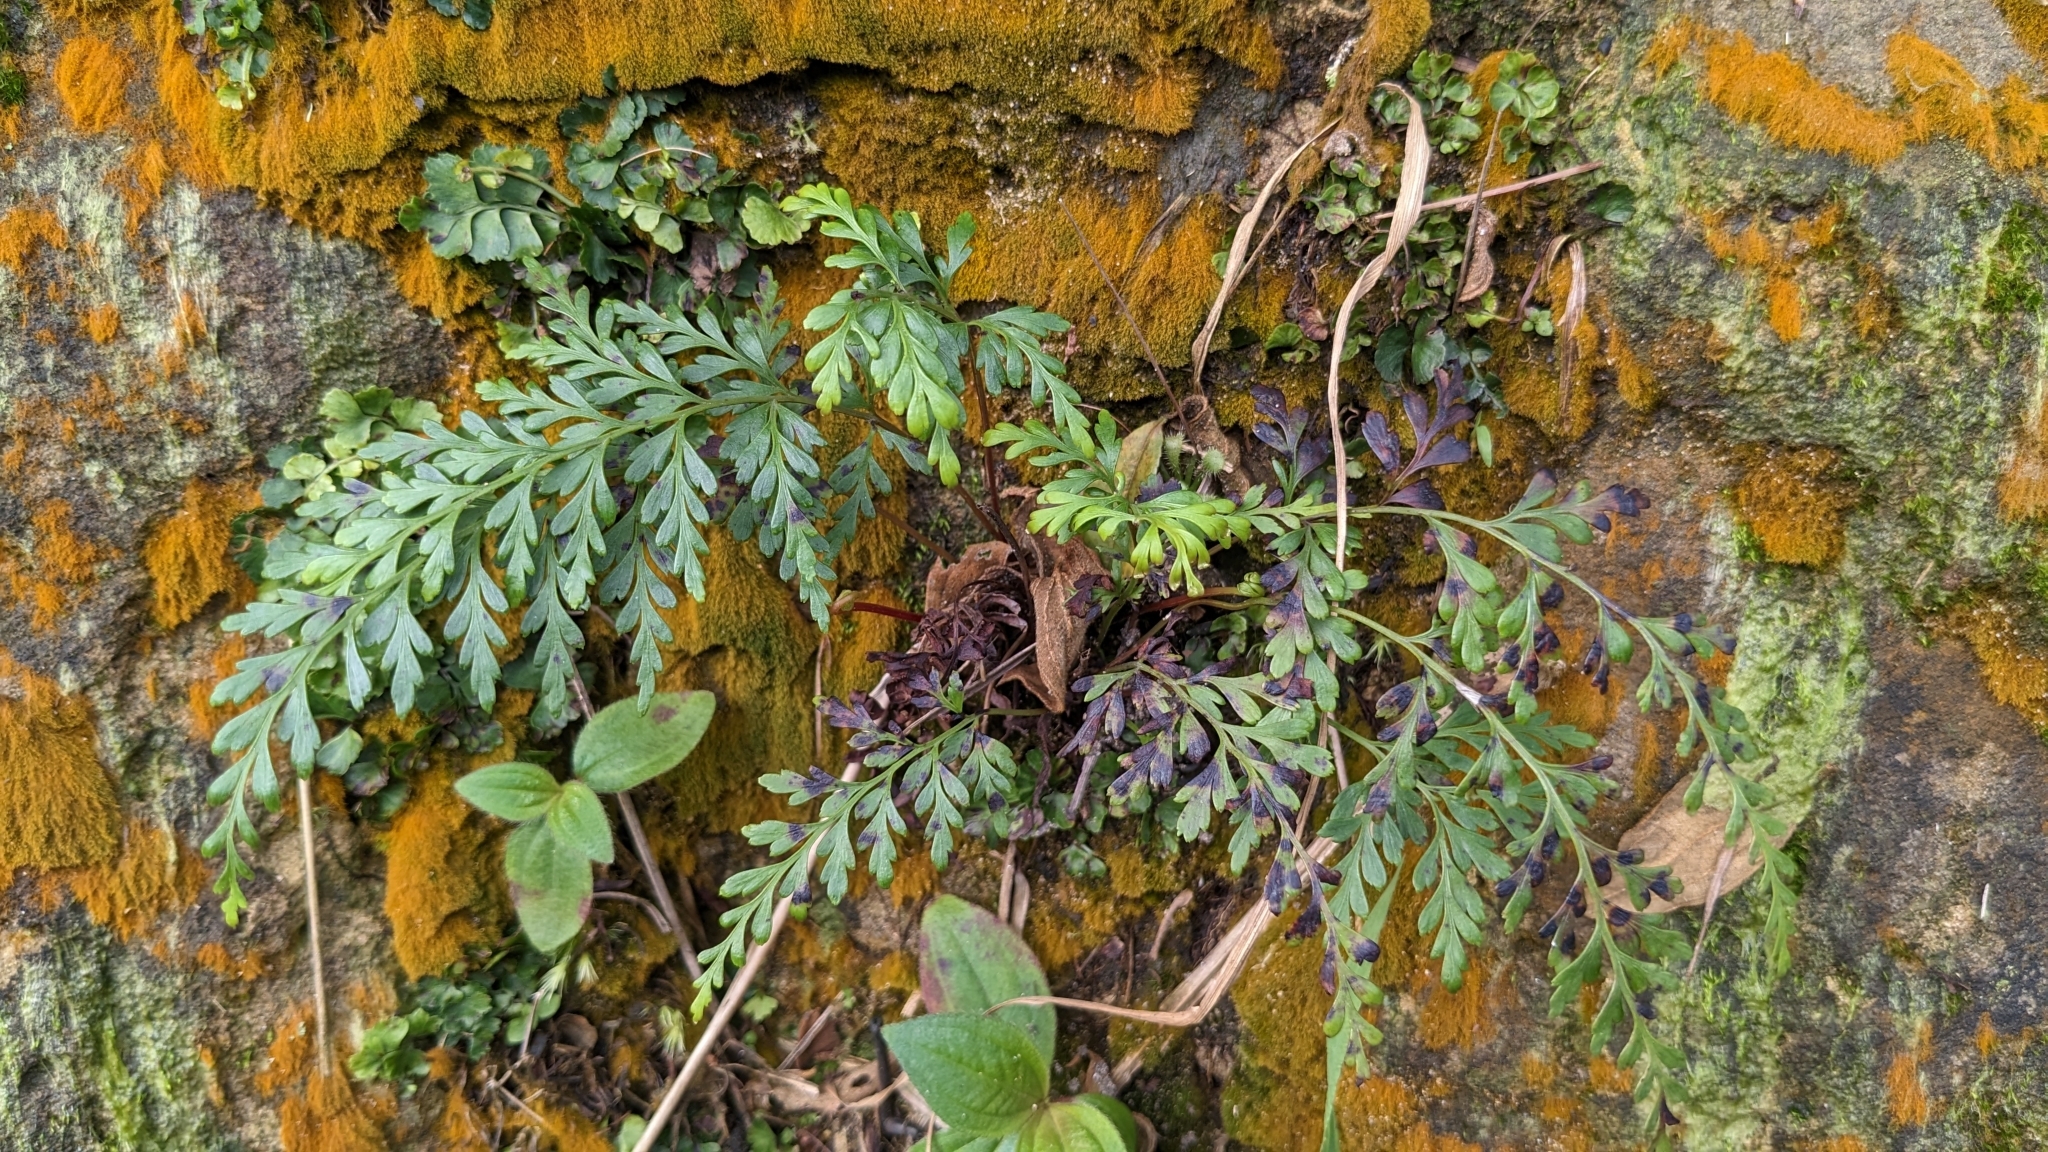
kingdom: Plantae
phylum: Tracheophyta
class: Polypodiopsida
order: Polypodiales
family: Lindsaeaceae
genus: Odontosoria
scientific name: Odontosoria chinensis
